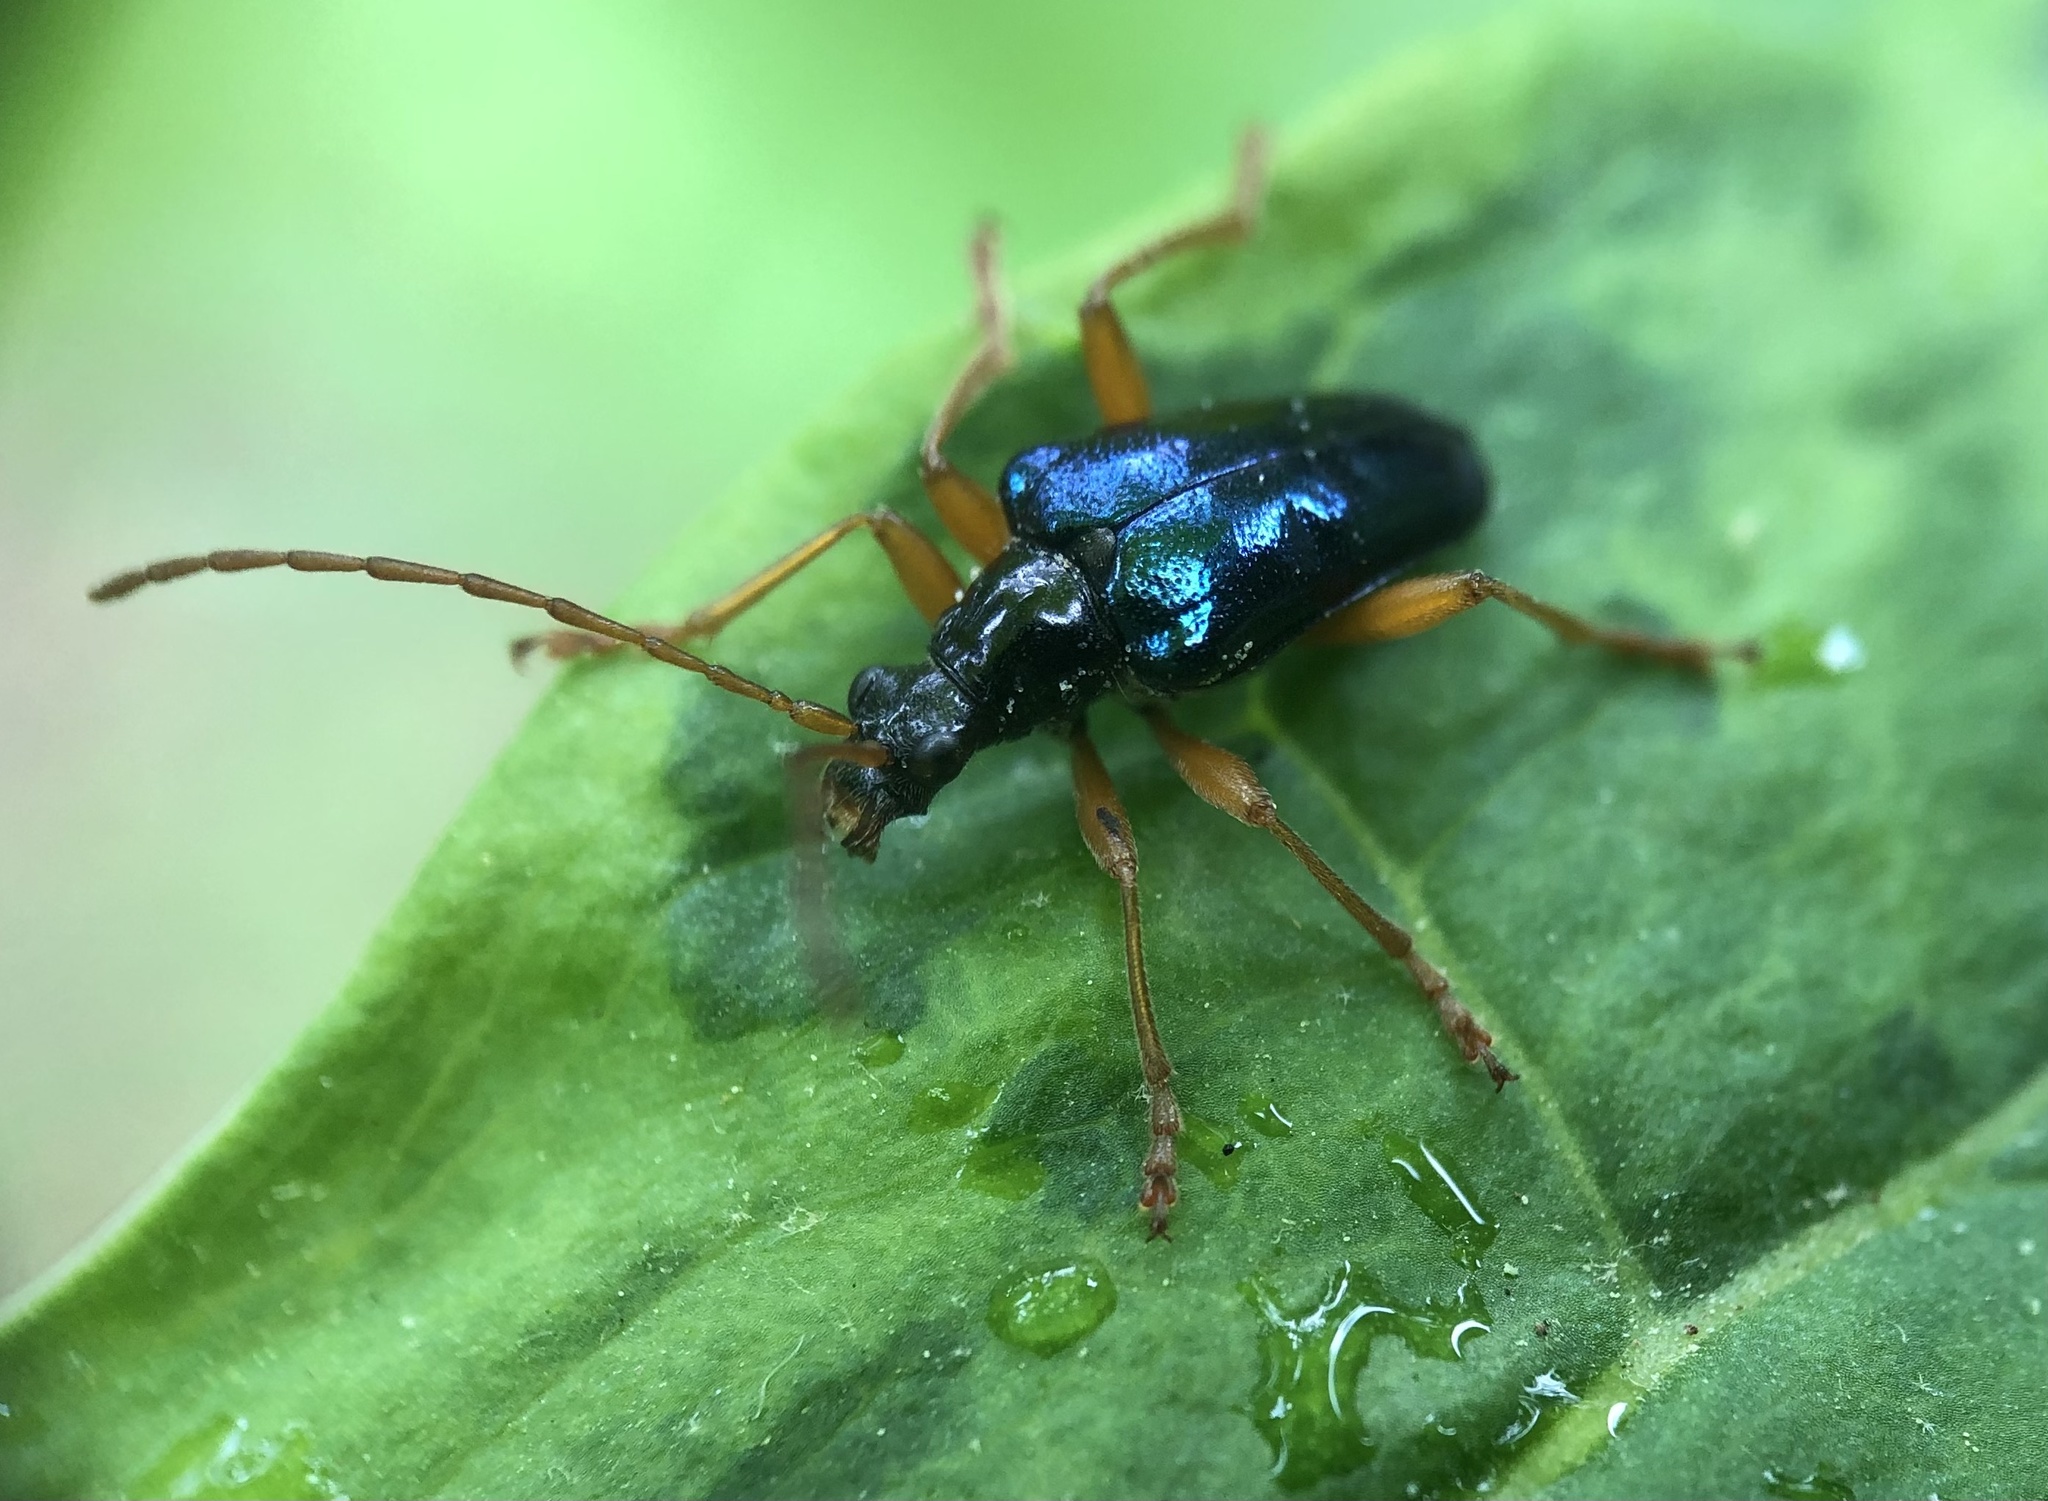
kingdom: Animalia
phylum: Arthropoda
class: Insecta
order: Coleoptera
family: Cerambycidae
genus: Gaurotes
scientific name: Gaurotes cyanipennis
